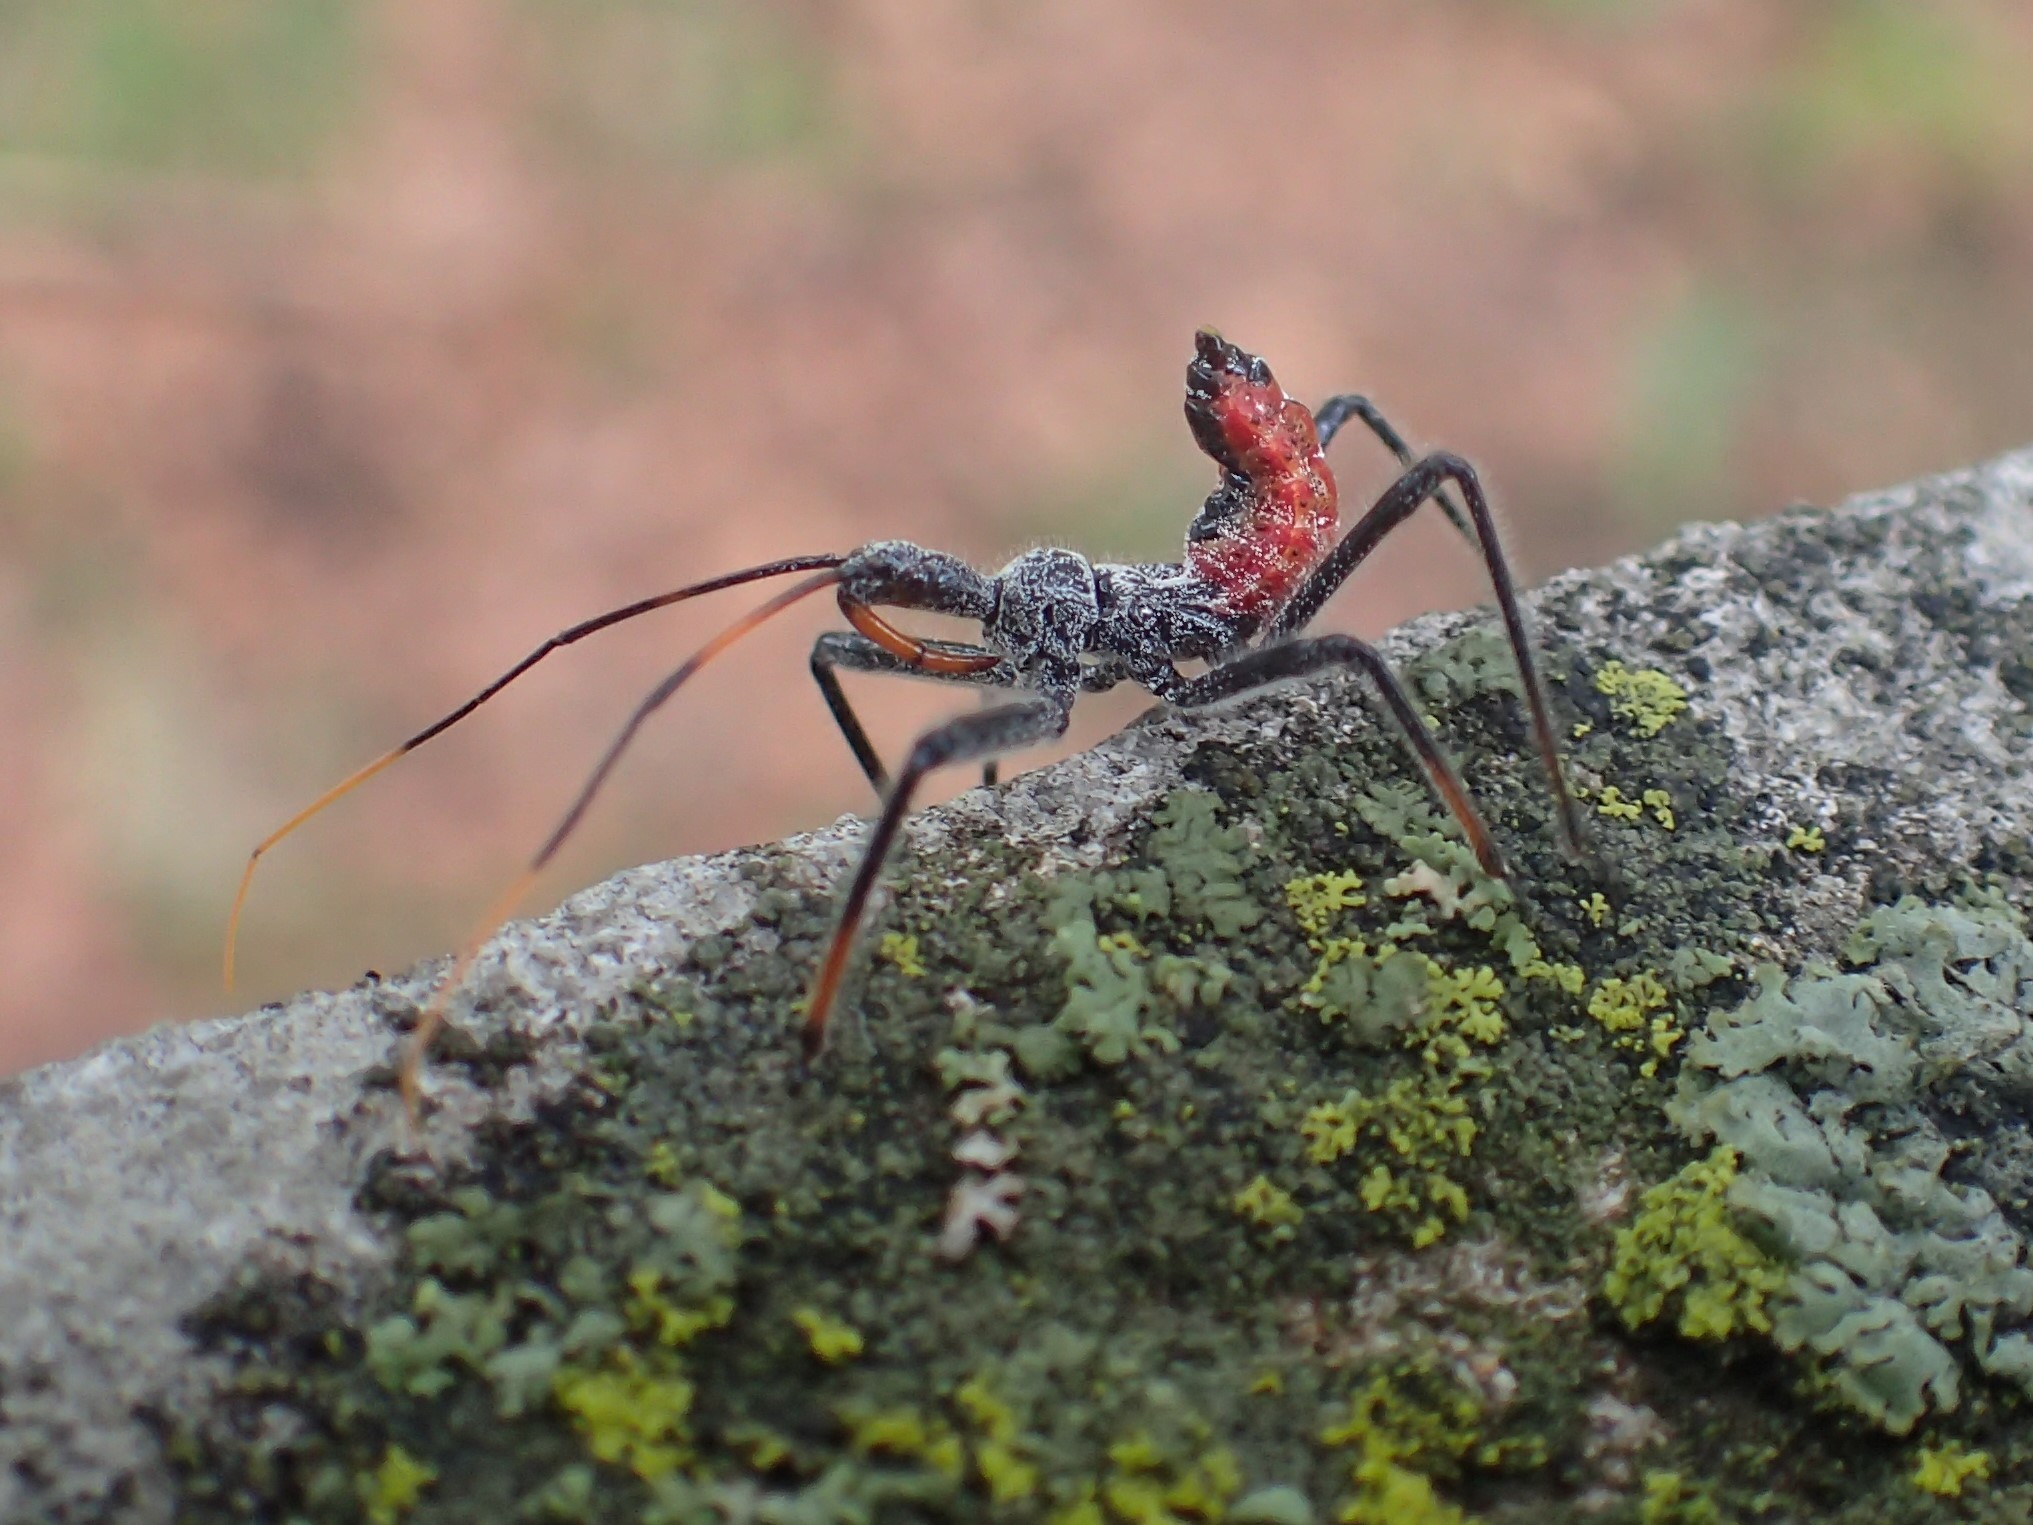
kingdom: Animalia
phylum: Arthropoda
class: Insecta
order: Hemiptera
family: Reduviidae
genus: Arilus
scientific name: Arilus cristatus
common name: North american wheel bug
